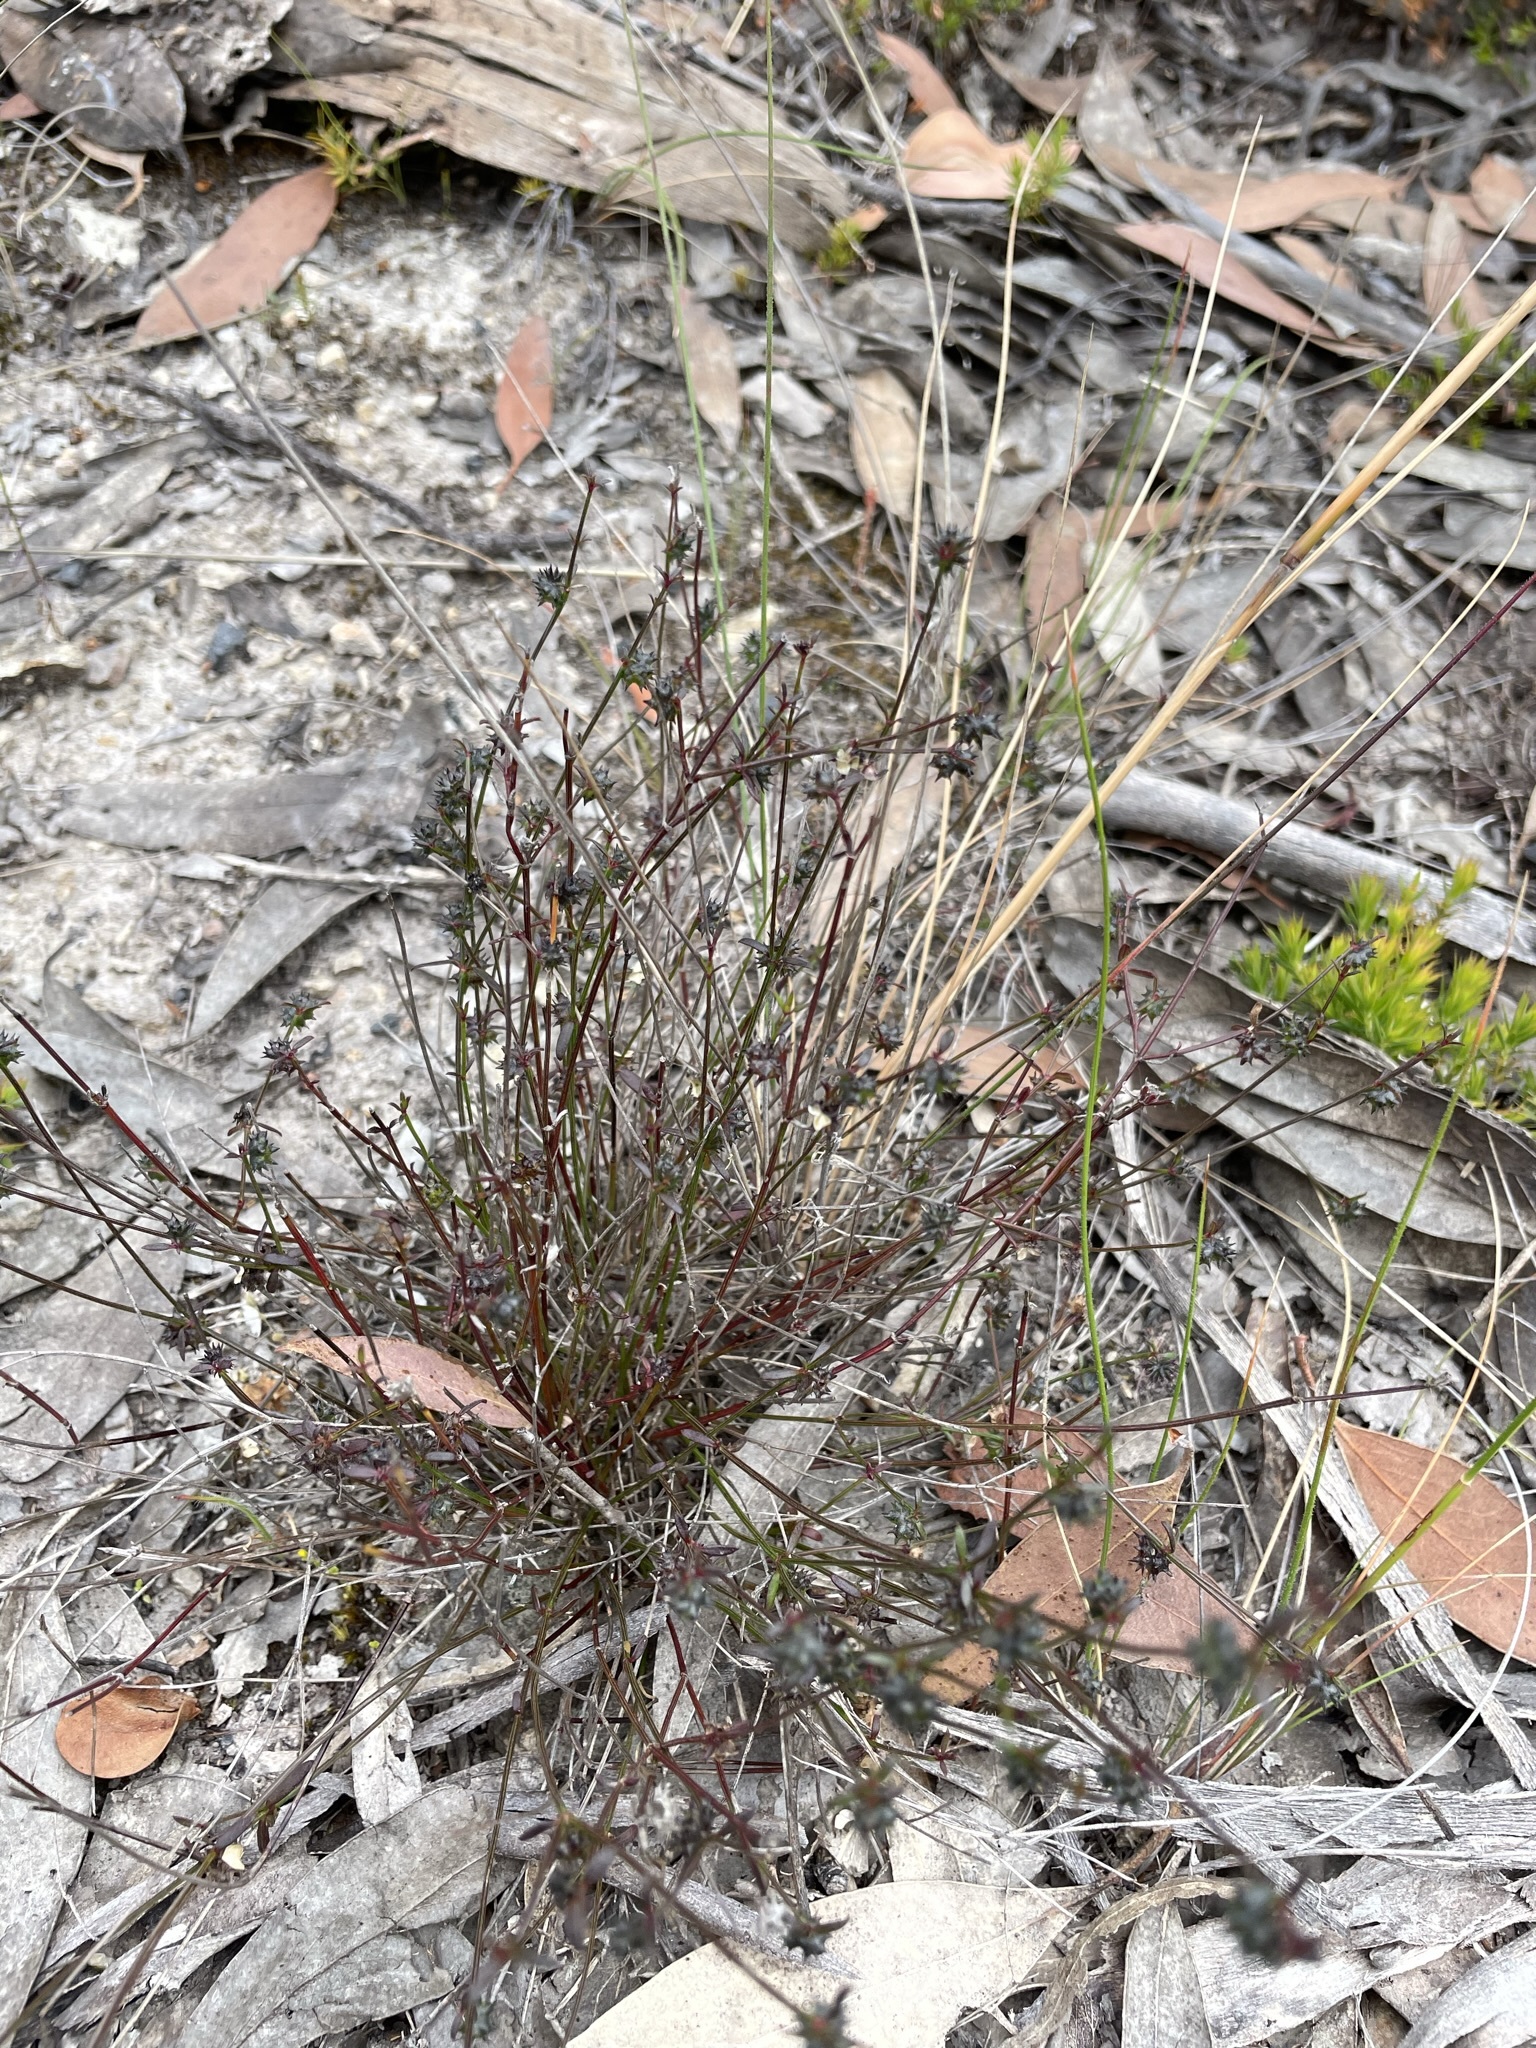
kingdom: Plantae
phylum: Tracheophyta
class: Magnoliopsida
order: Gentianales
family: Rubiaceae
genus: Opercularia
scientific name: Opercularia varia
